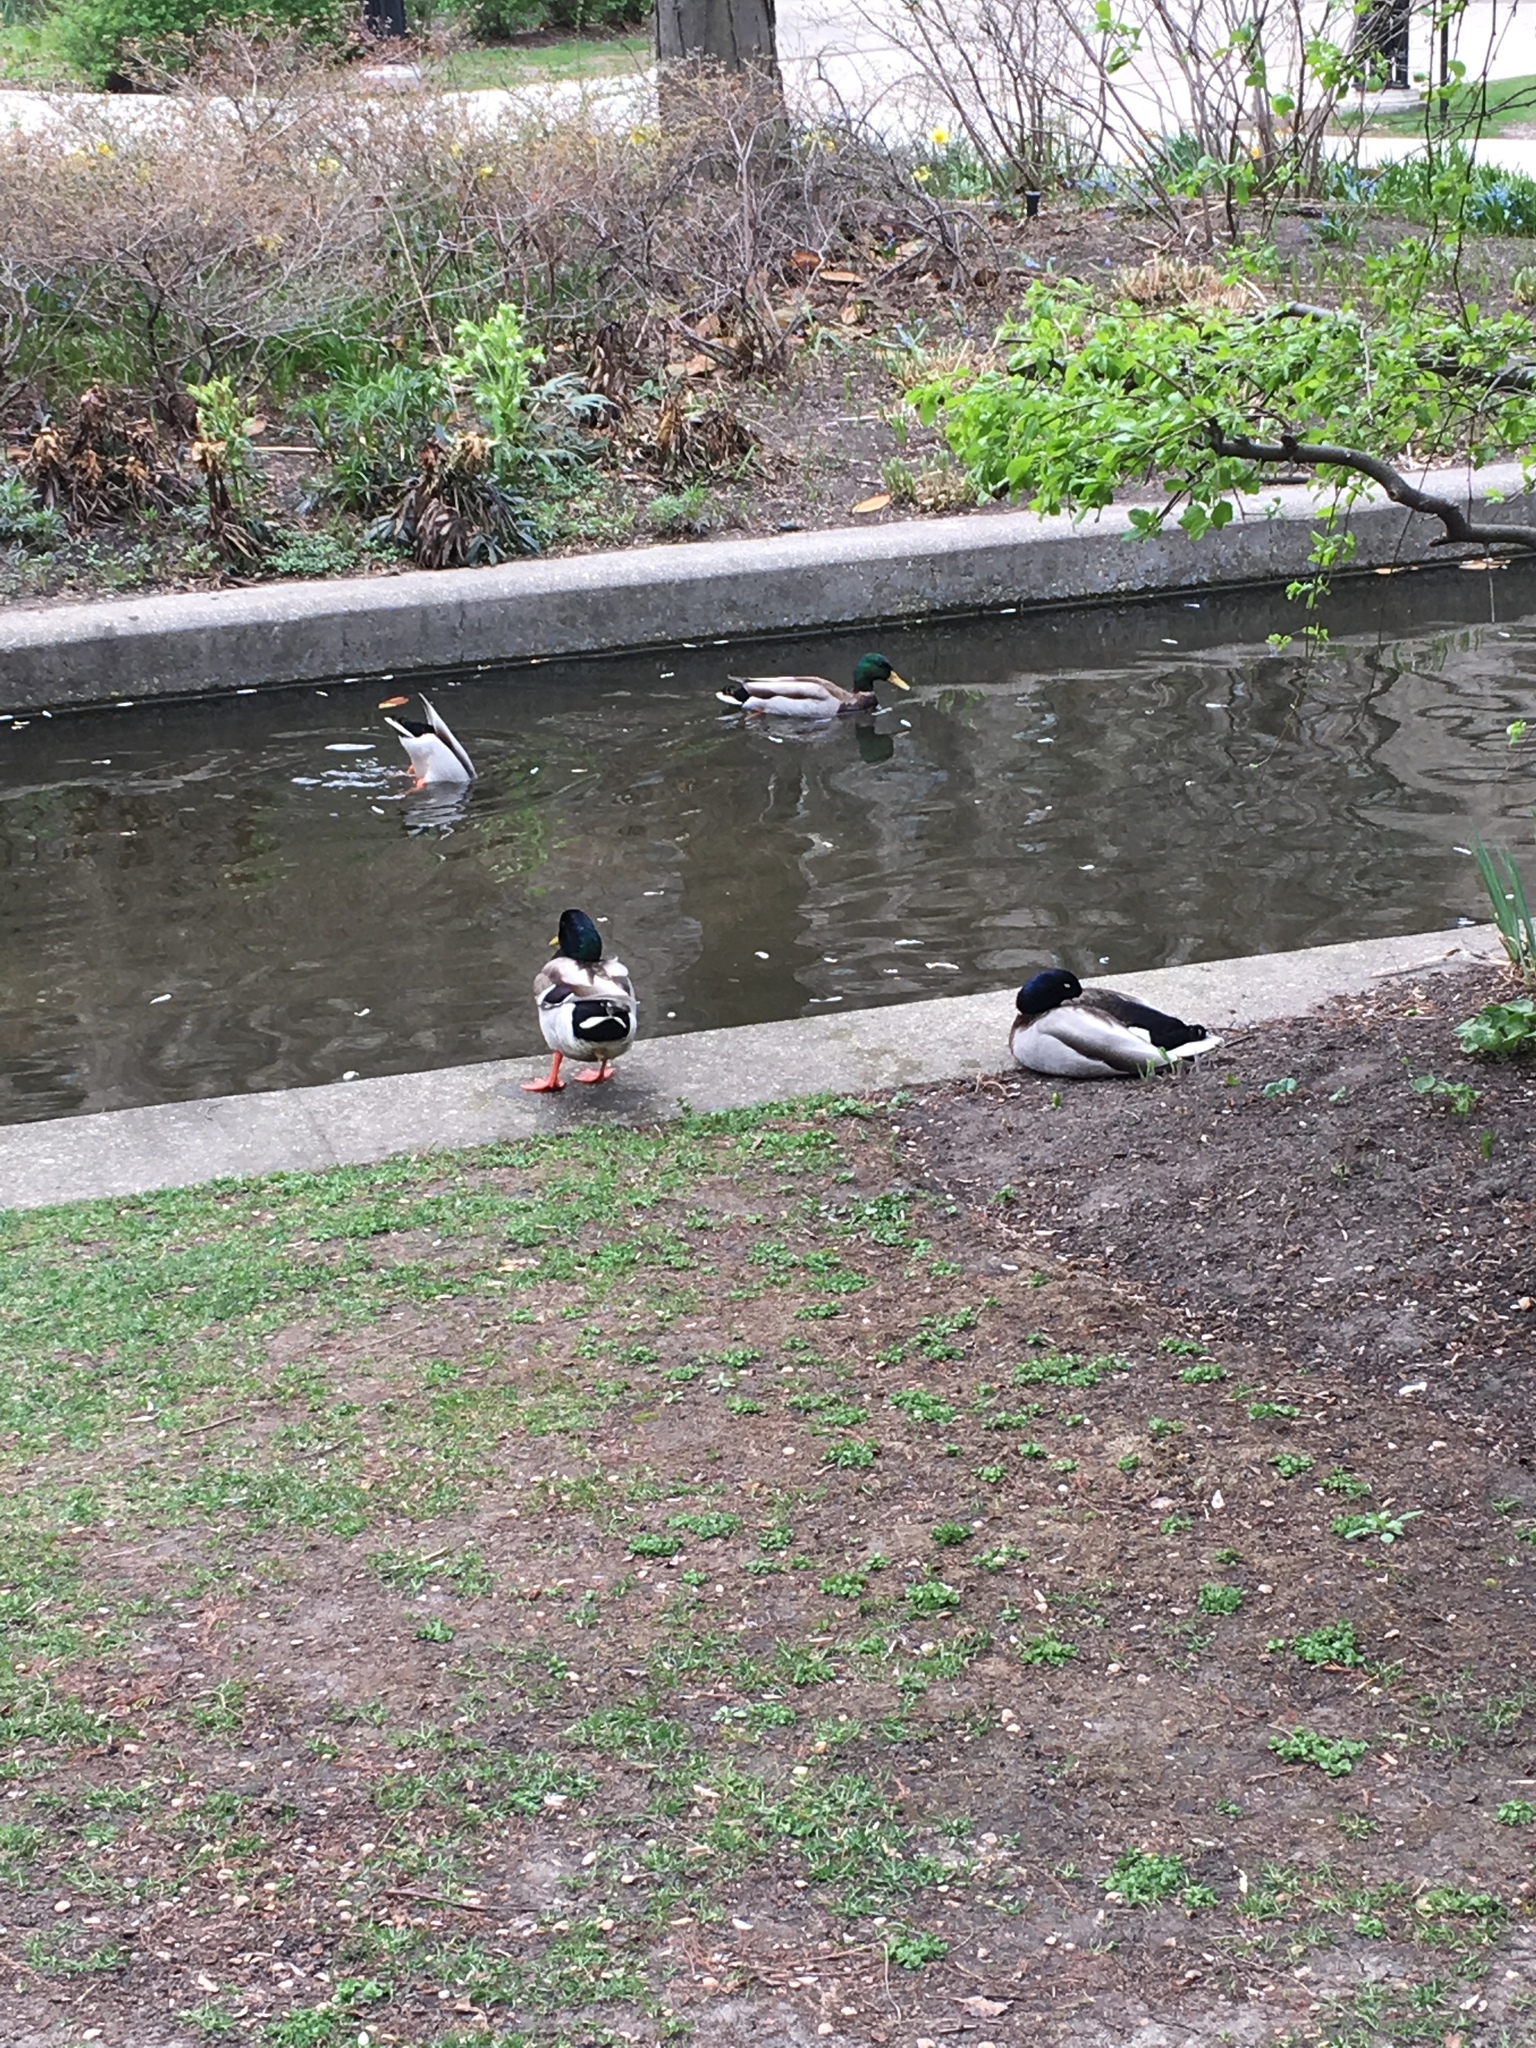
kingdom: Animalia
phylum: Chordata
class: Aves
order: Anseriformes
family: Anatidae
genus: Anas
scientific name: Anas platyrhynchos
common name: Mallard
